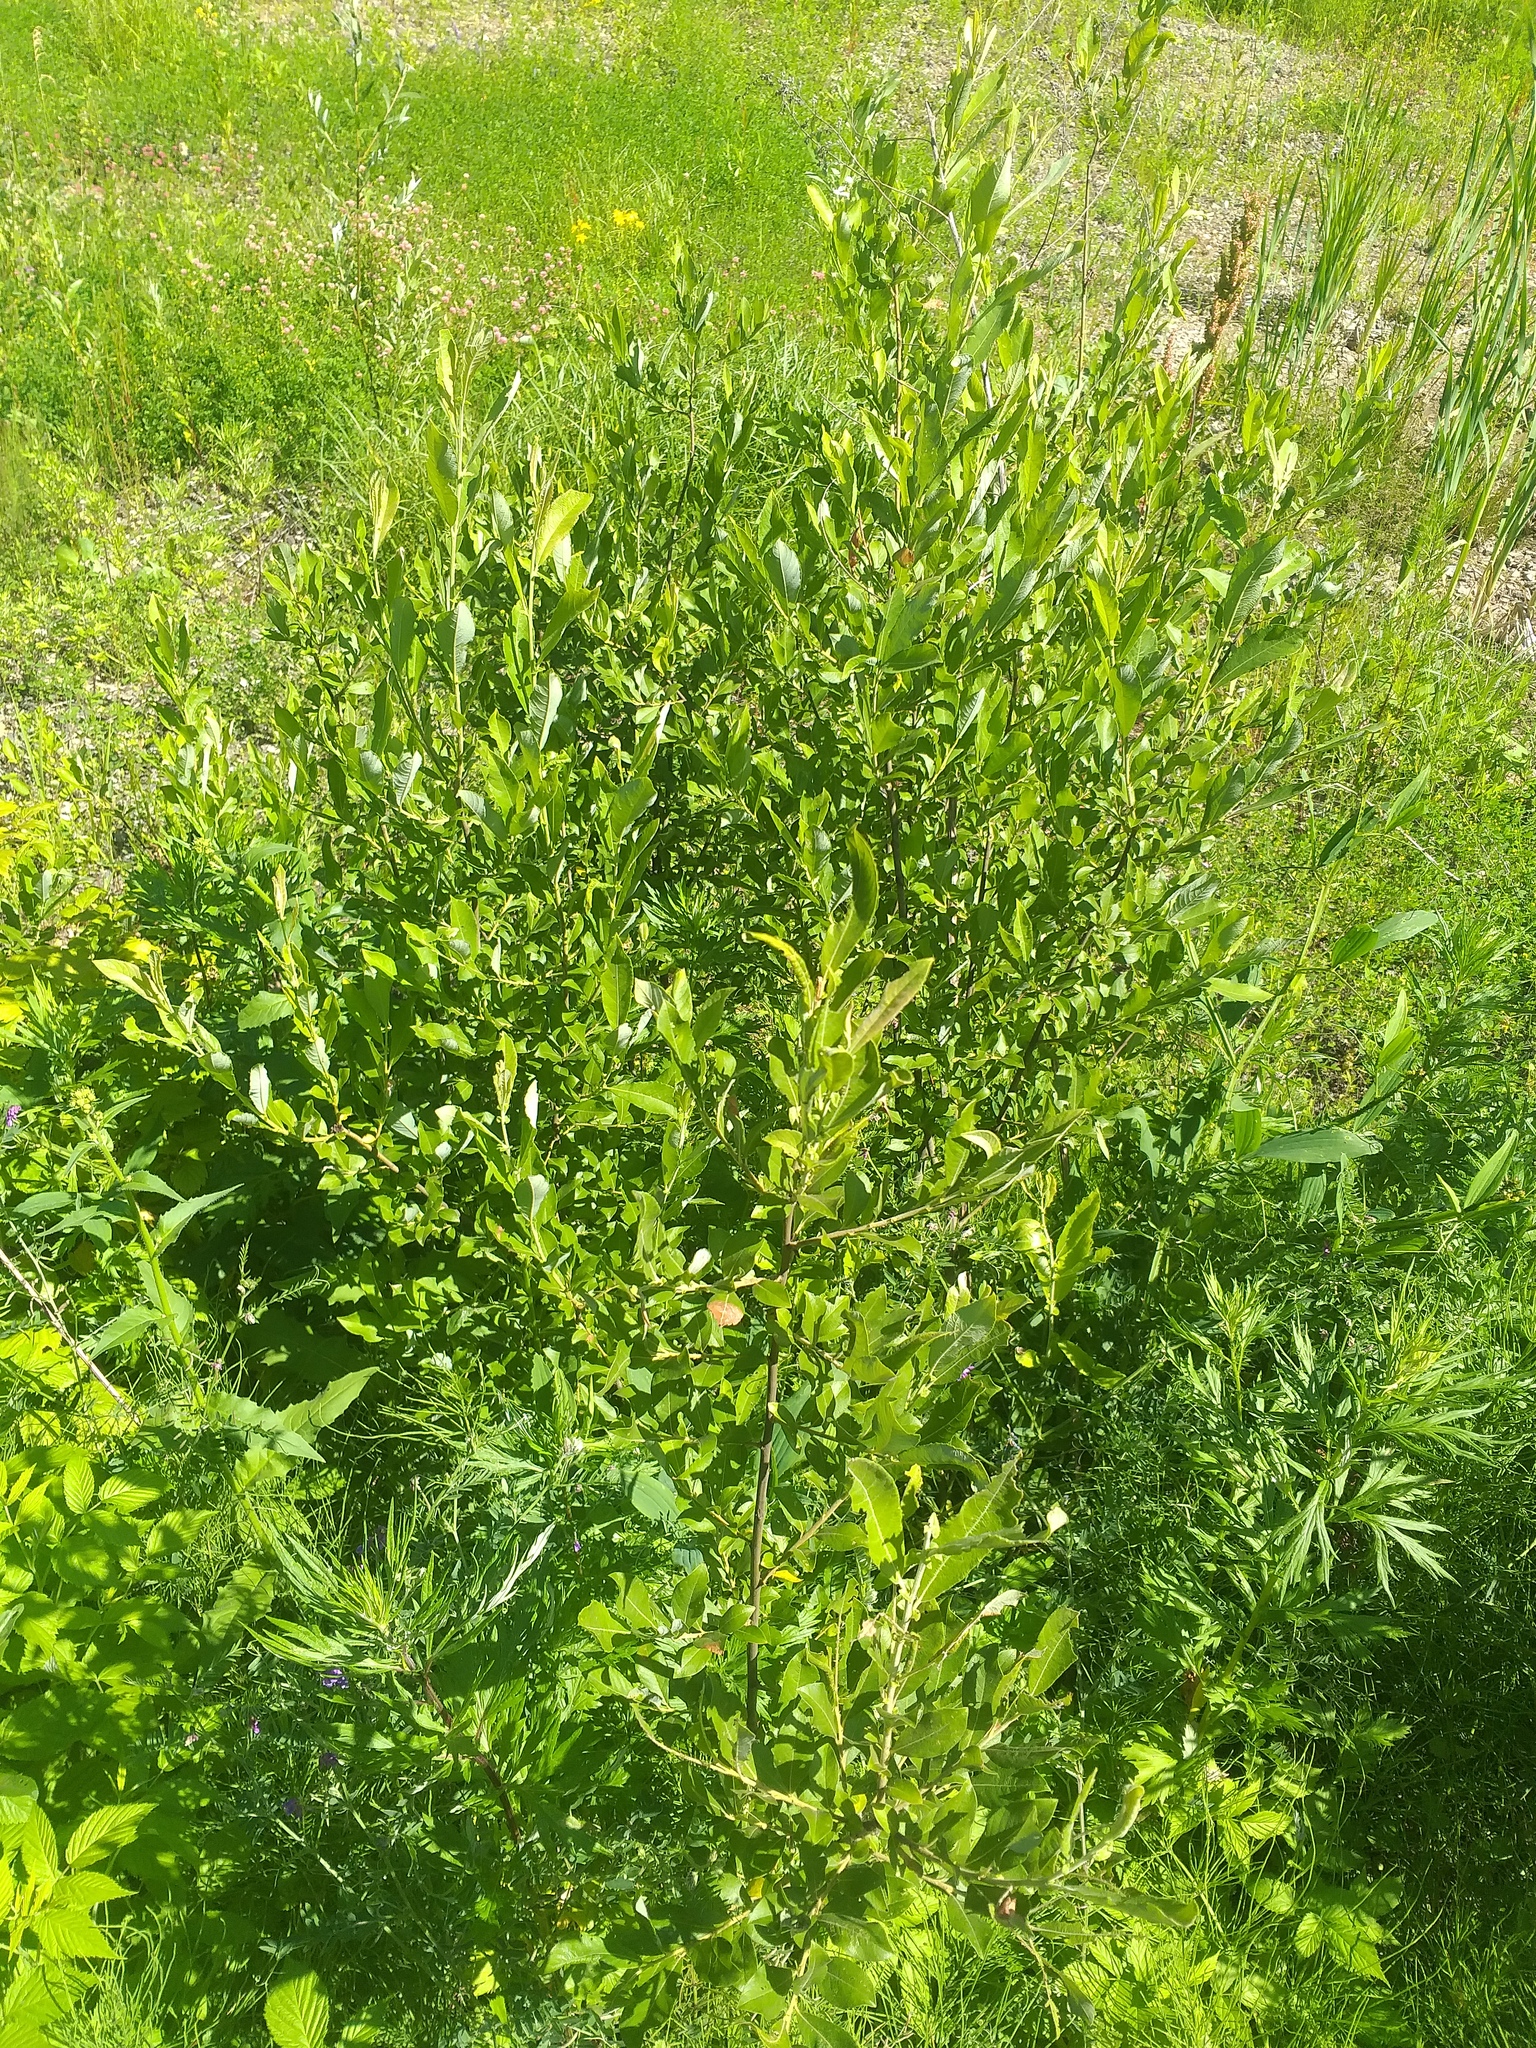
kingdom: Plantae
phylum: Tracheophyta
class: Magnoliopsida
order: Malpighiales
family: Salicaceae
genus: Salix
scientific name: Salix myrsinifolia
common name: Dark-leaved willow
